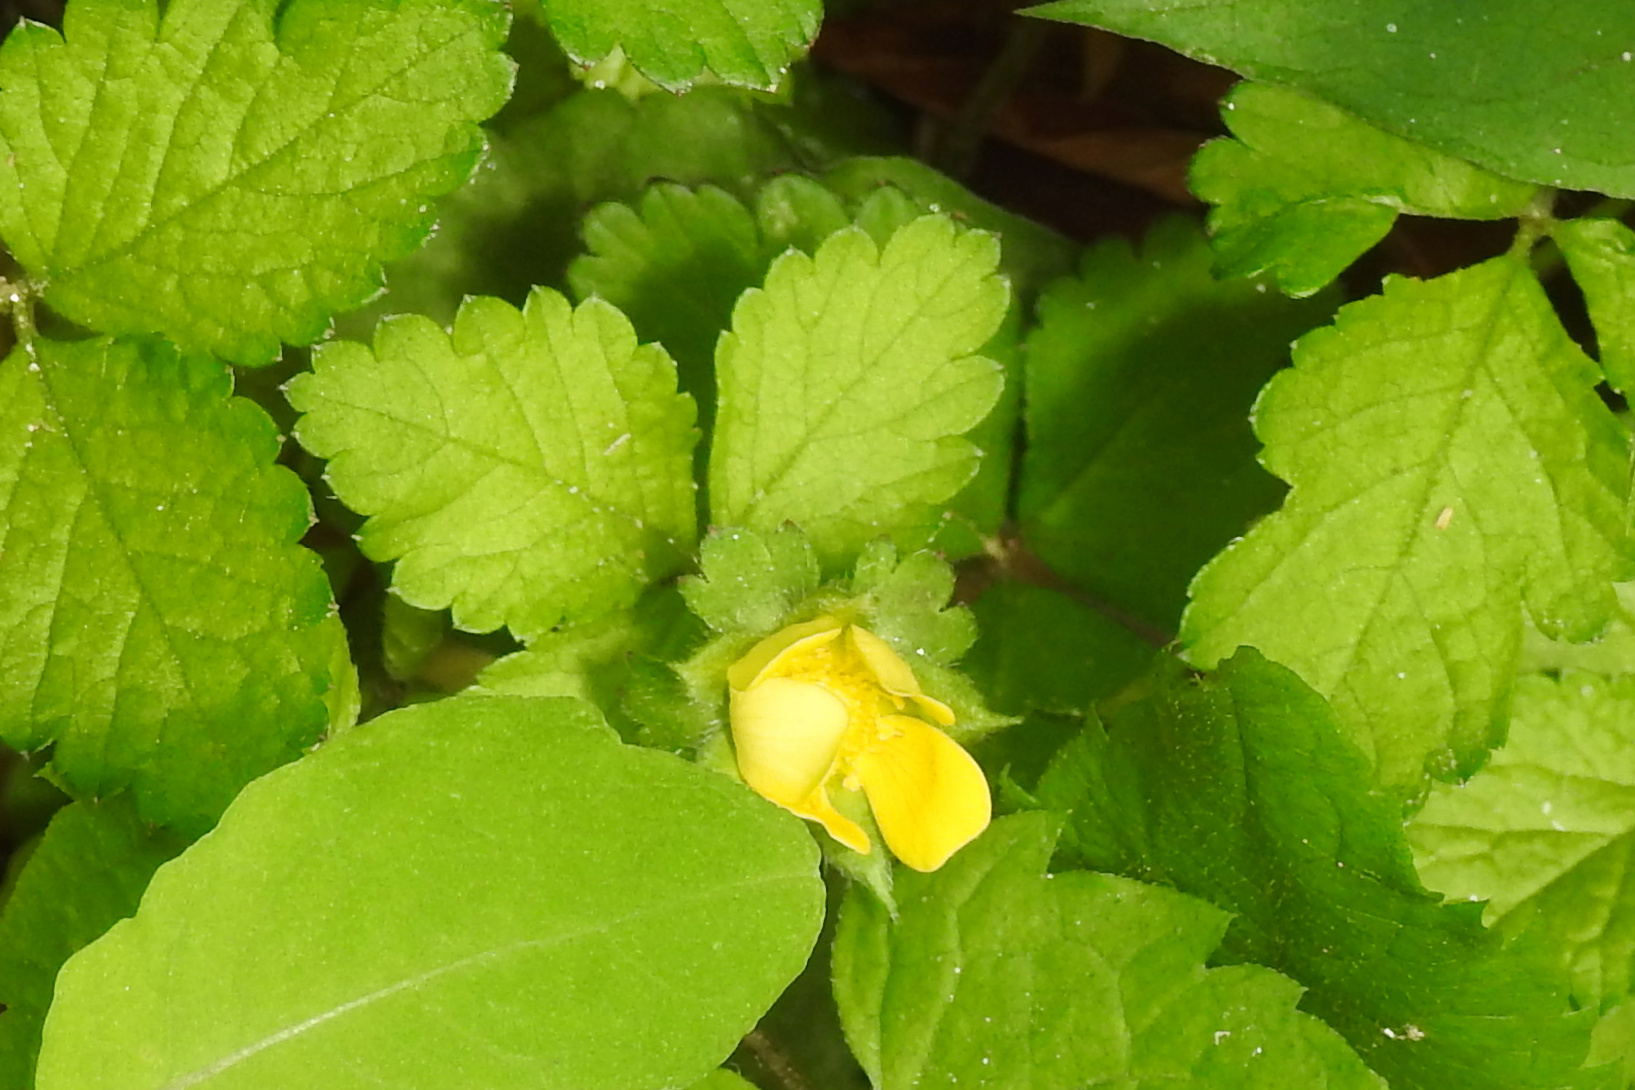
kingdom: Plantae
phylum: Tracheophyta
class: Magnoliopsida
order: Rosales
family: Rosaceae
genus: Potentilla
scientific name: Potentilla indica
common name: Yellow-flowered strawberry
